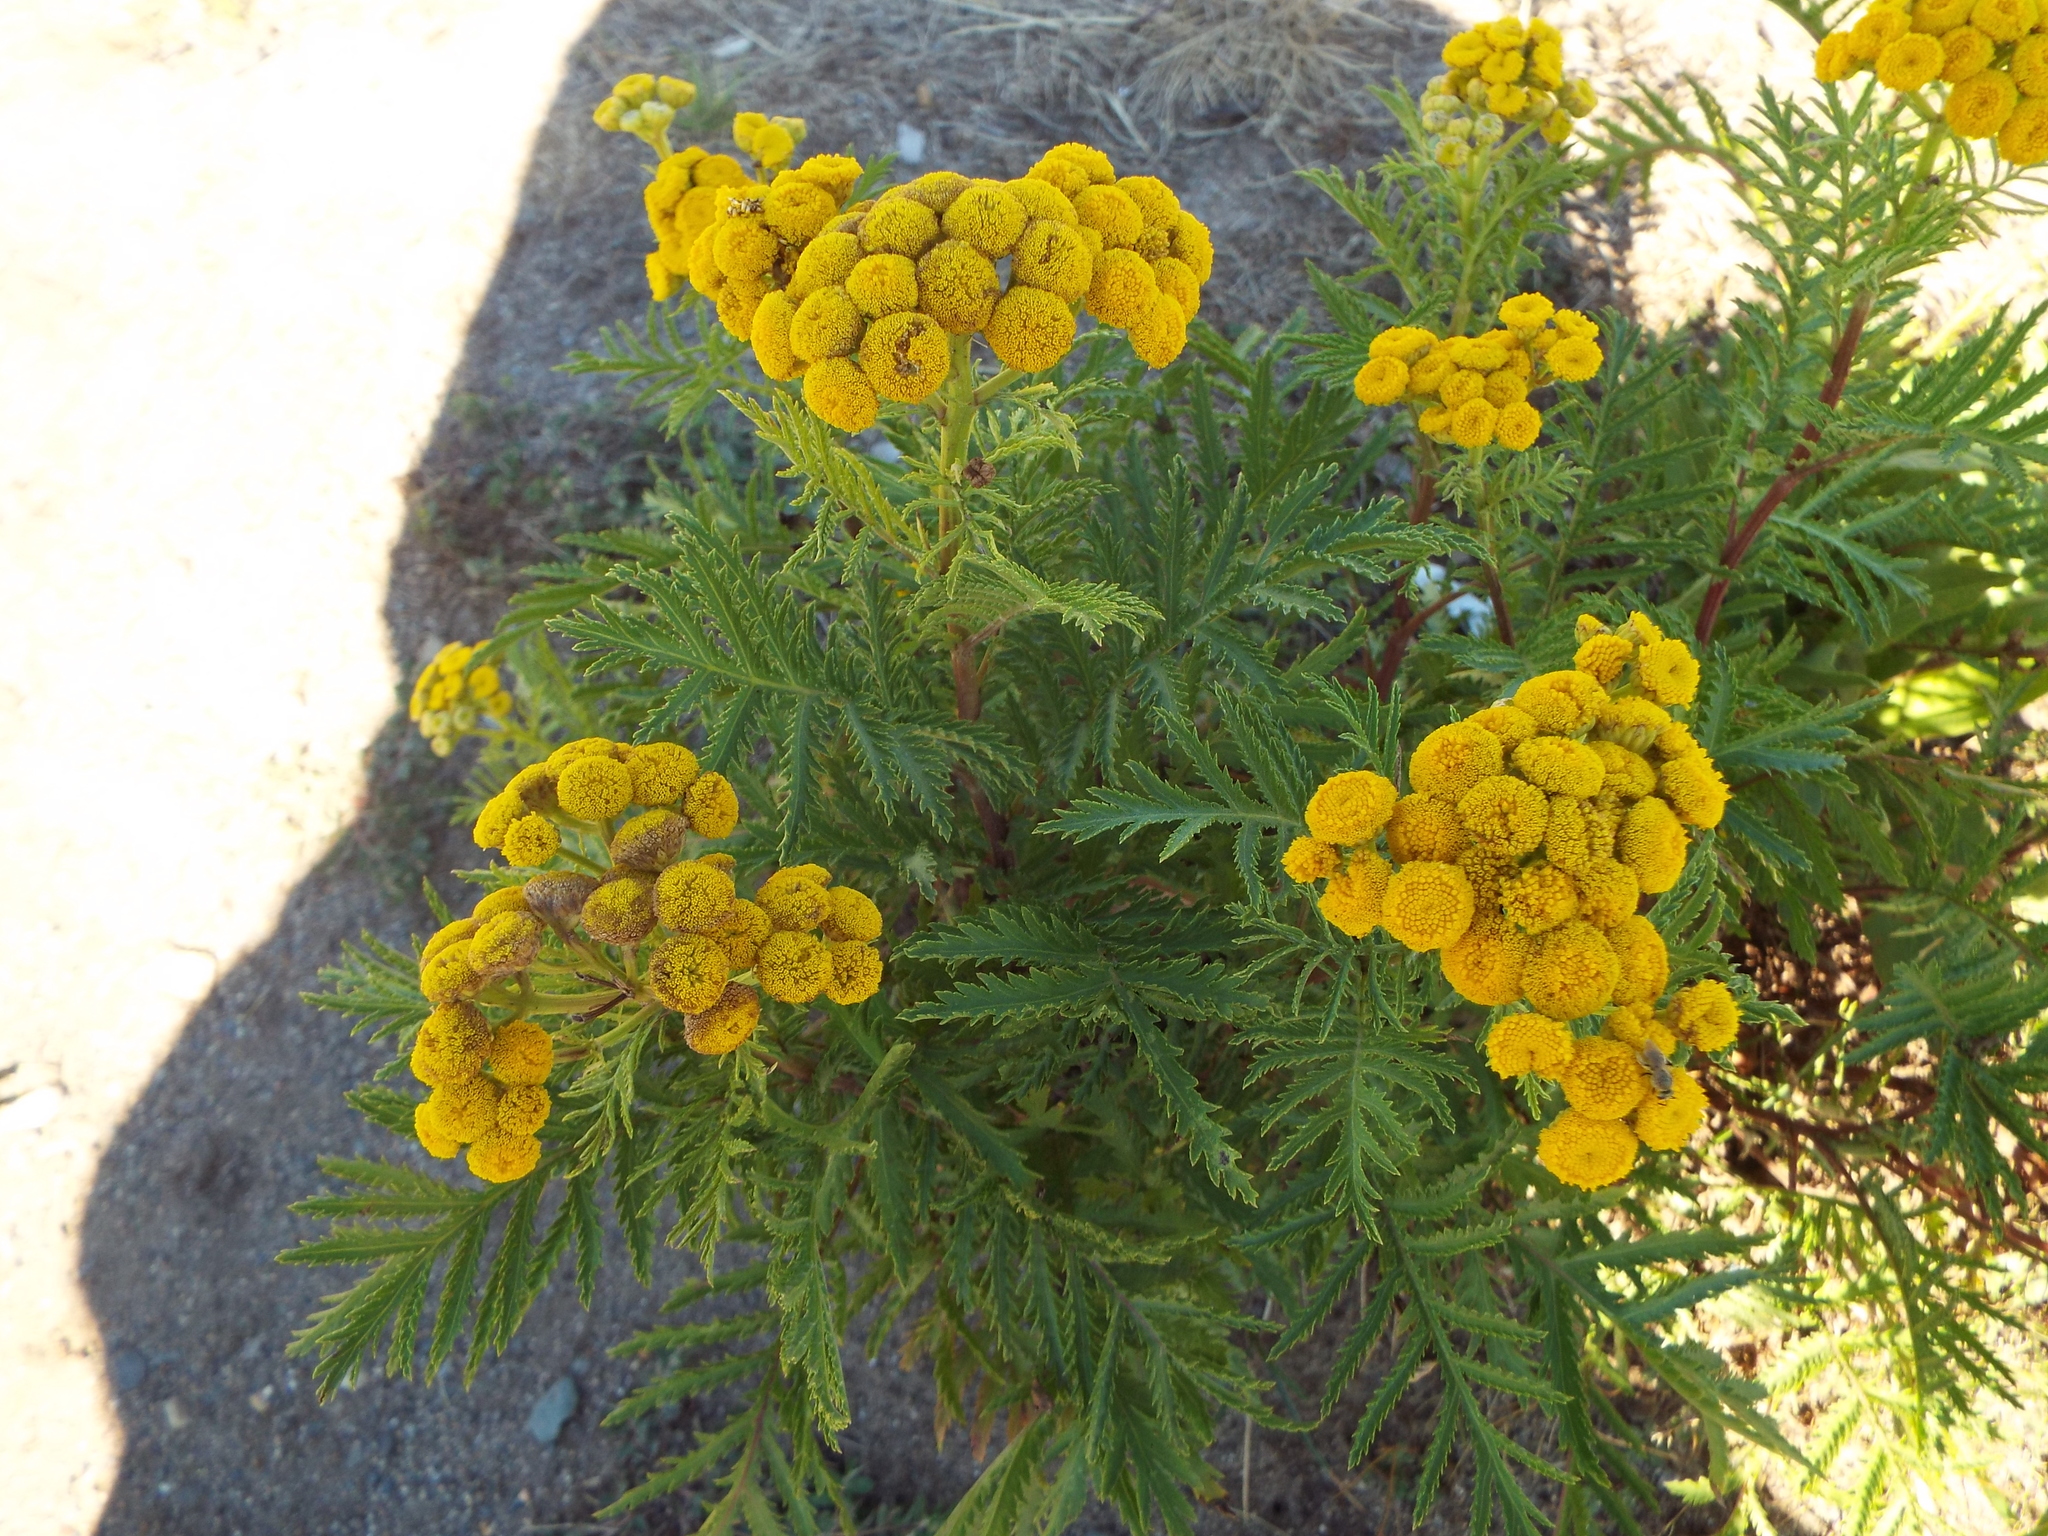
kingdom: Plantae
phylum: Tracheophyta
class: Magnoliopsida
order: Asterales
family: Asteraceae
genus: Tanacetum
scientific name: Tanacetum vulgare
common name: Common tansy
